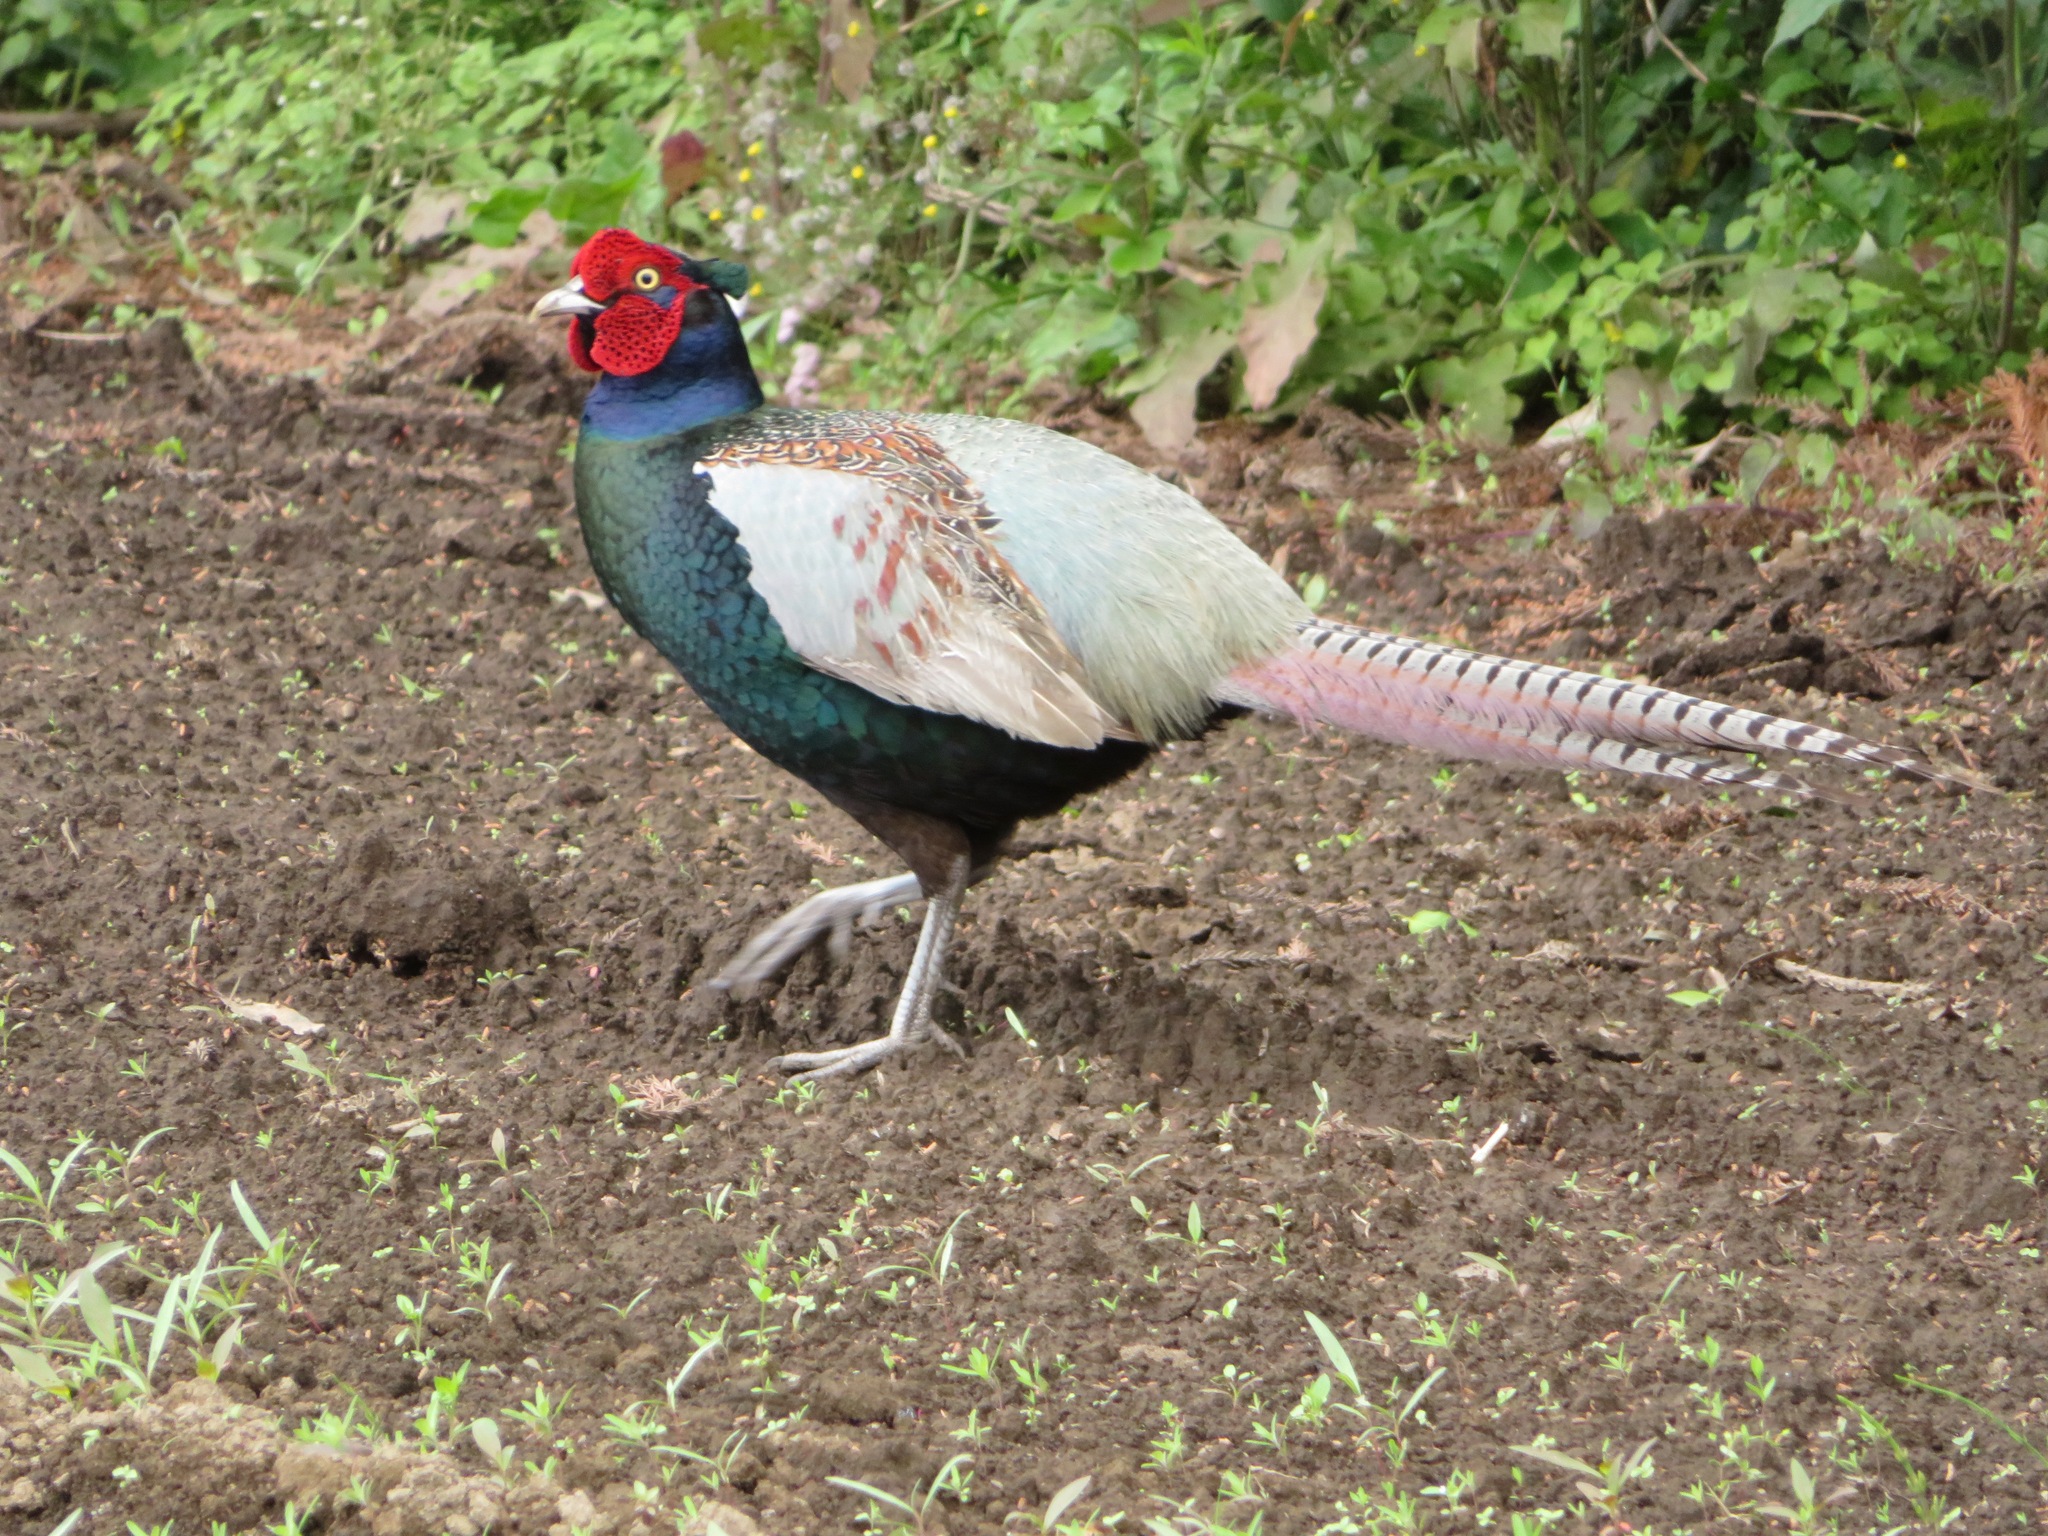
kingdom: Animalia
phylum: Chordata
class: Aves
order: Galliformes
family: Phasianidae
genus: Phasianus
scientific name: Phasianus versicolor
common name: Green pheasant
